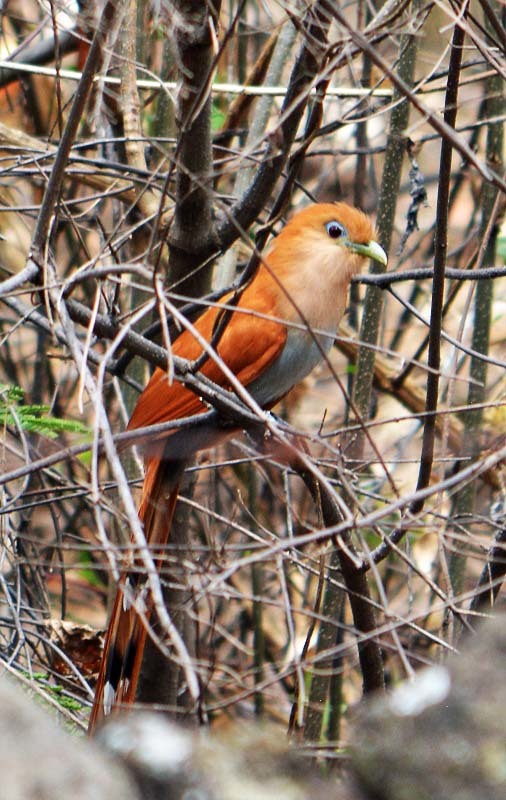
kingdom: Animalia
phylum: Chordata
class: Aves
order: Cuculiformes
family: Cuculidae
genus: Piaya
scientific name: Piaya cayana
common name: Squirrel cuckoo
